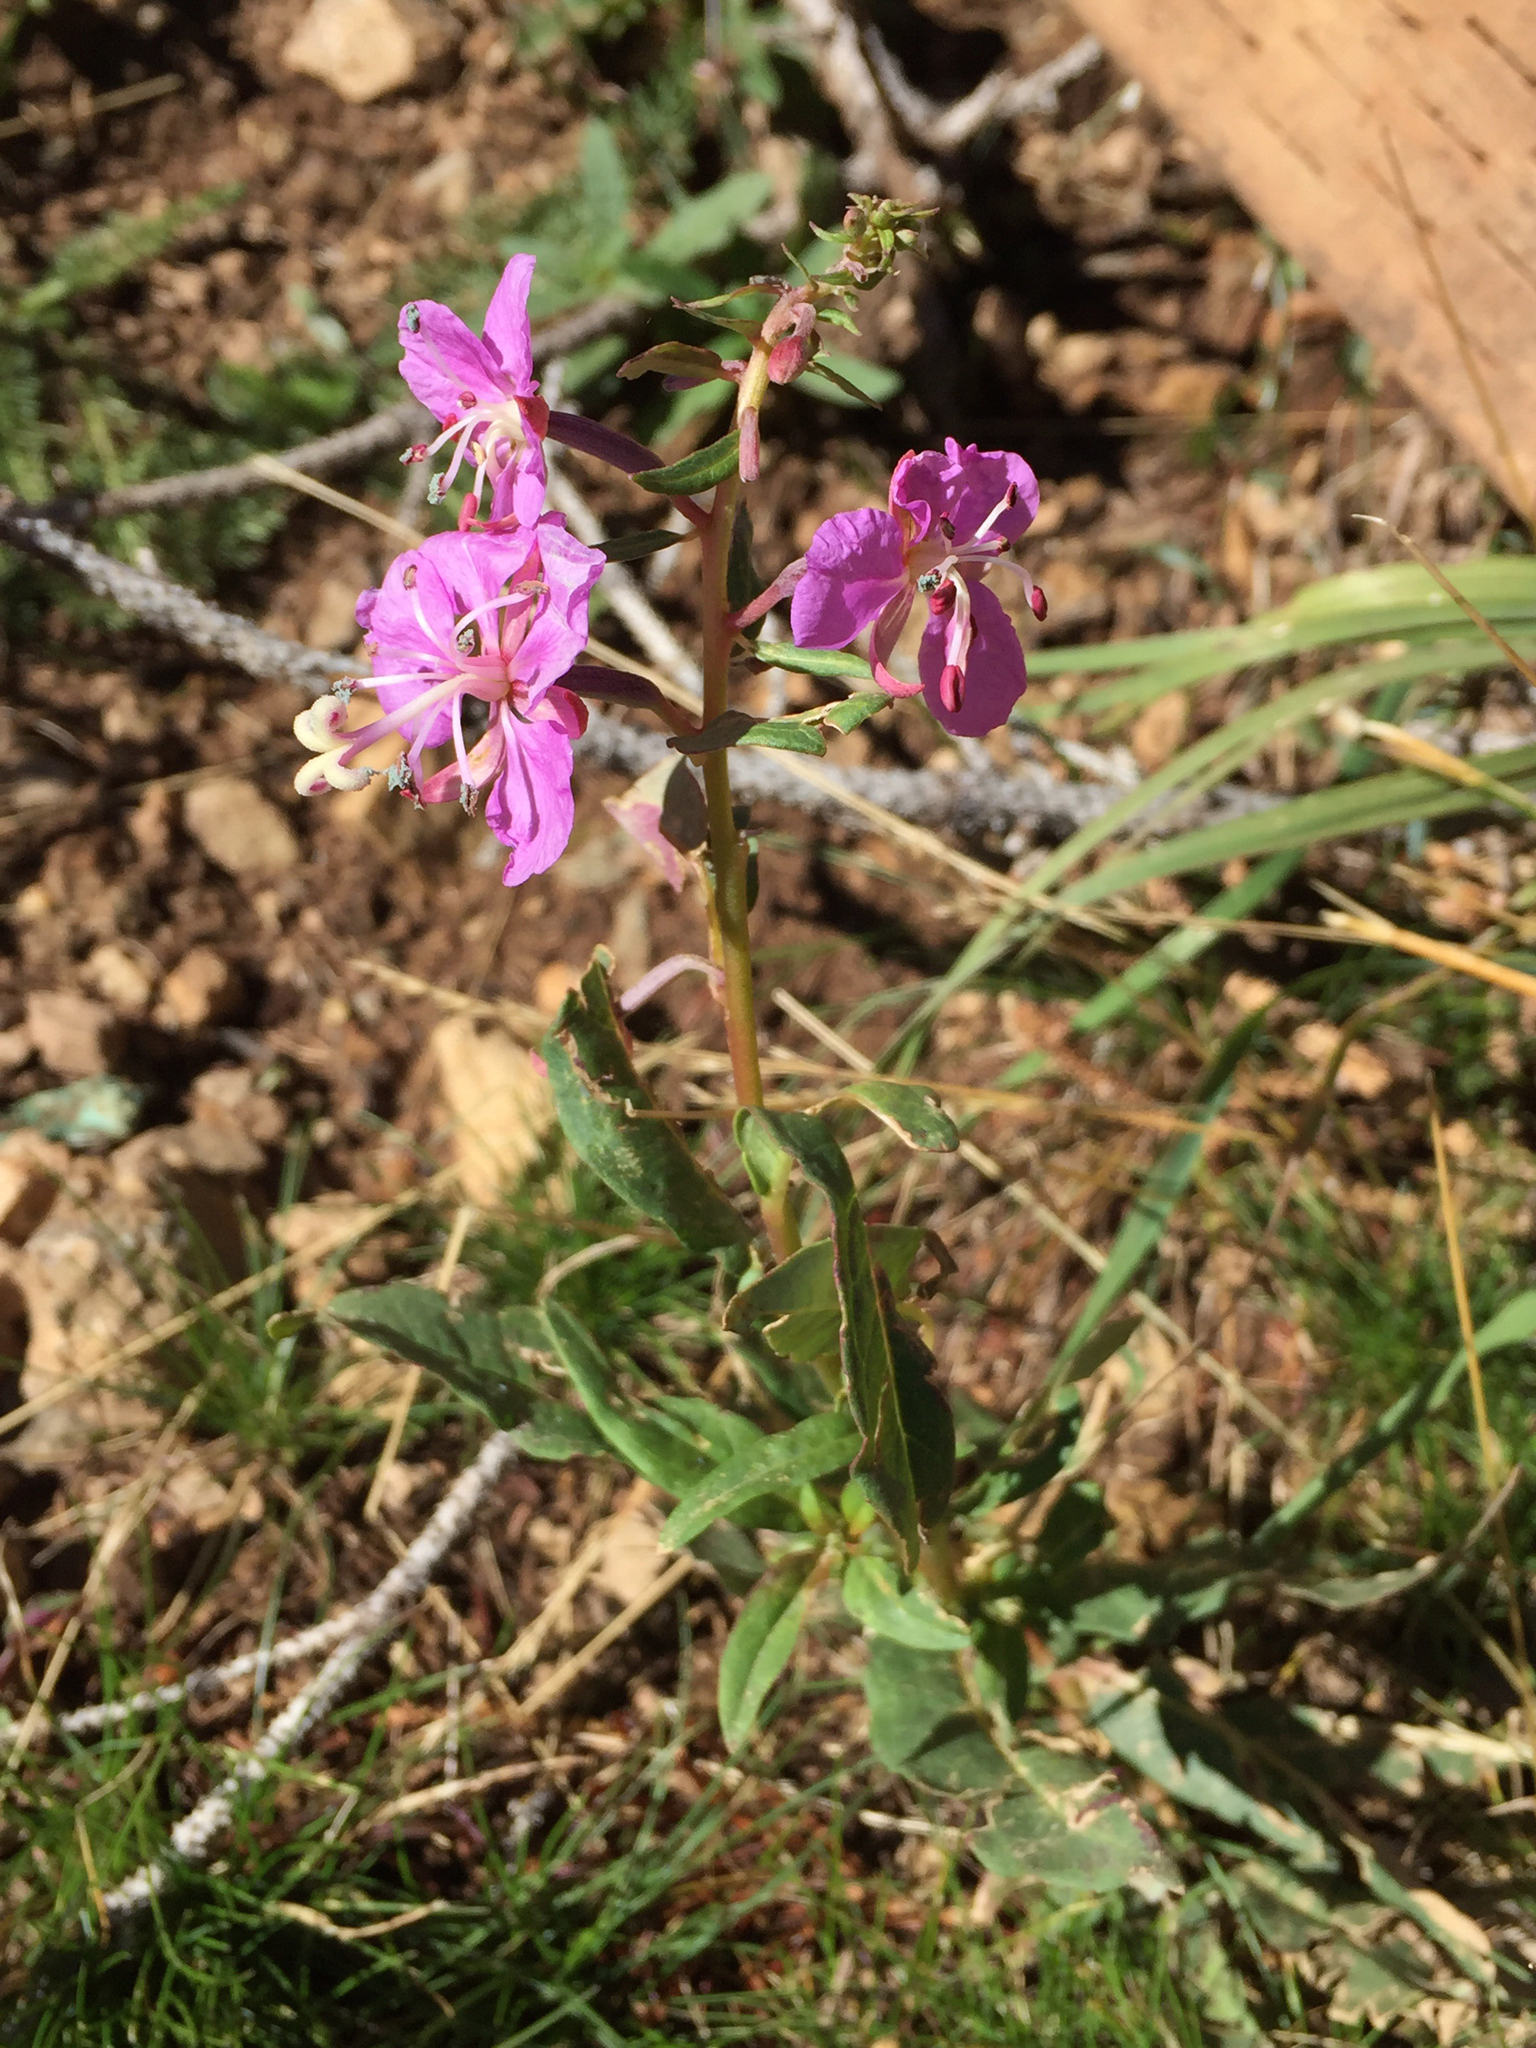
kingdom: Plantae
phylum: Tracheophyta
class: Magnoliopsida
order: Myrtales
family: Onagraceae
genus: Chamaenerion
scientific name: Chamaenerion angustifolium
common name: Fireweed
